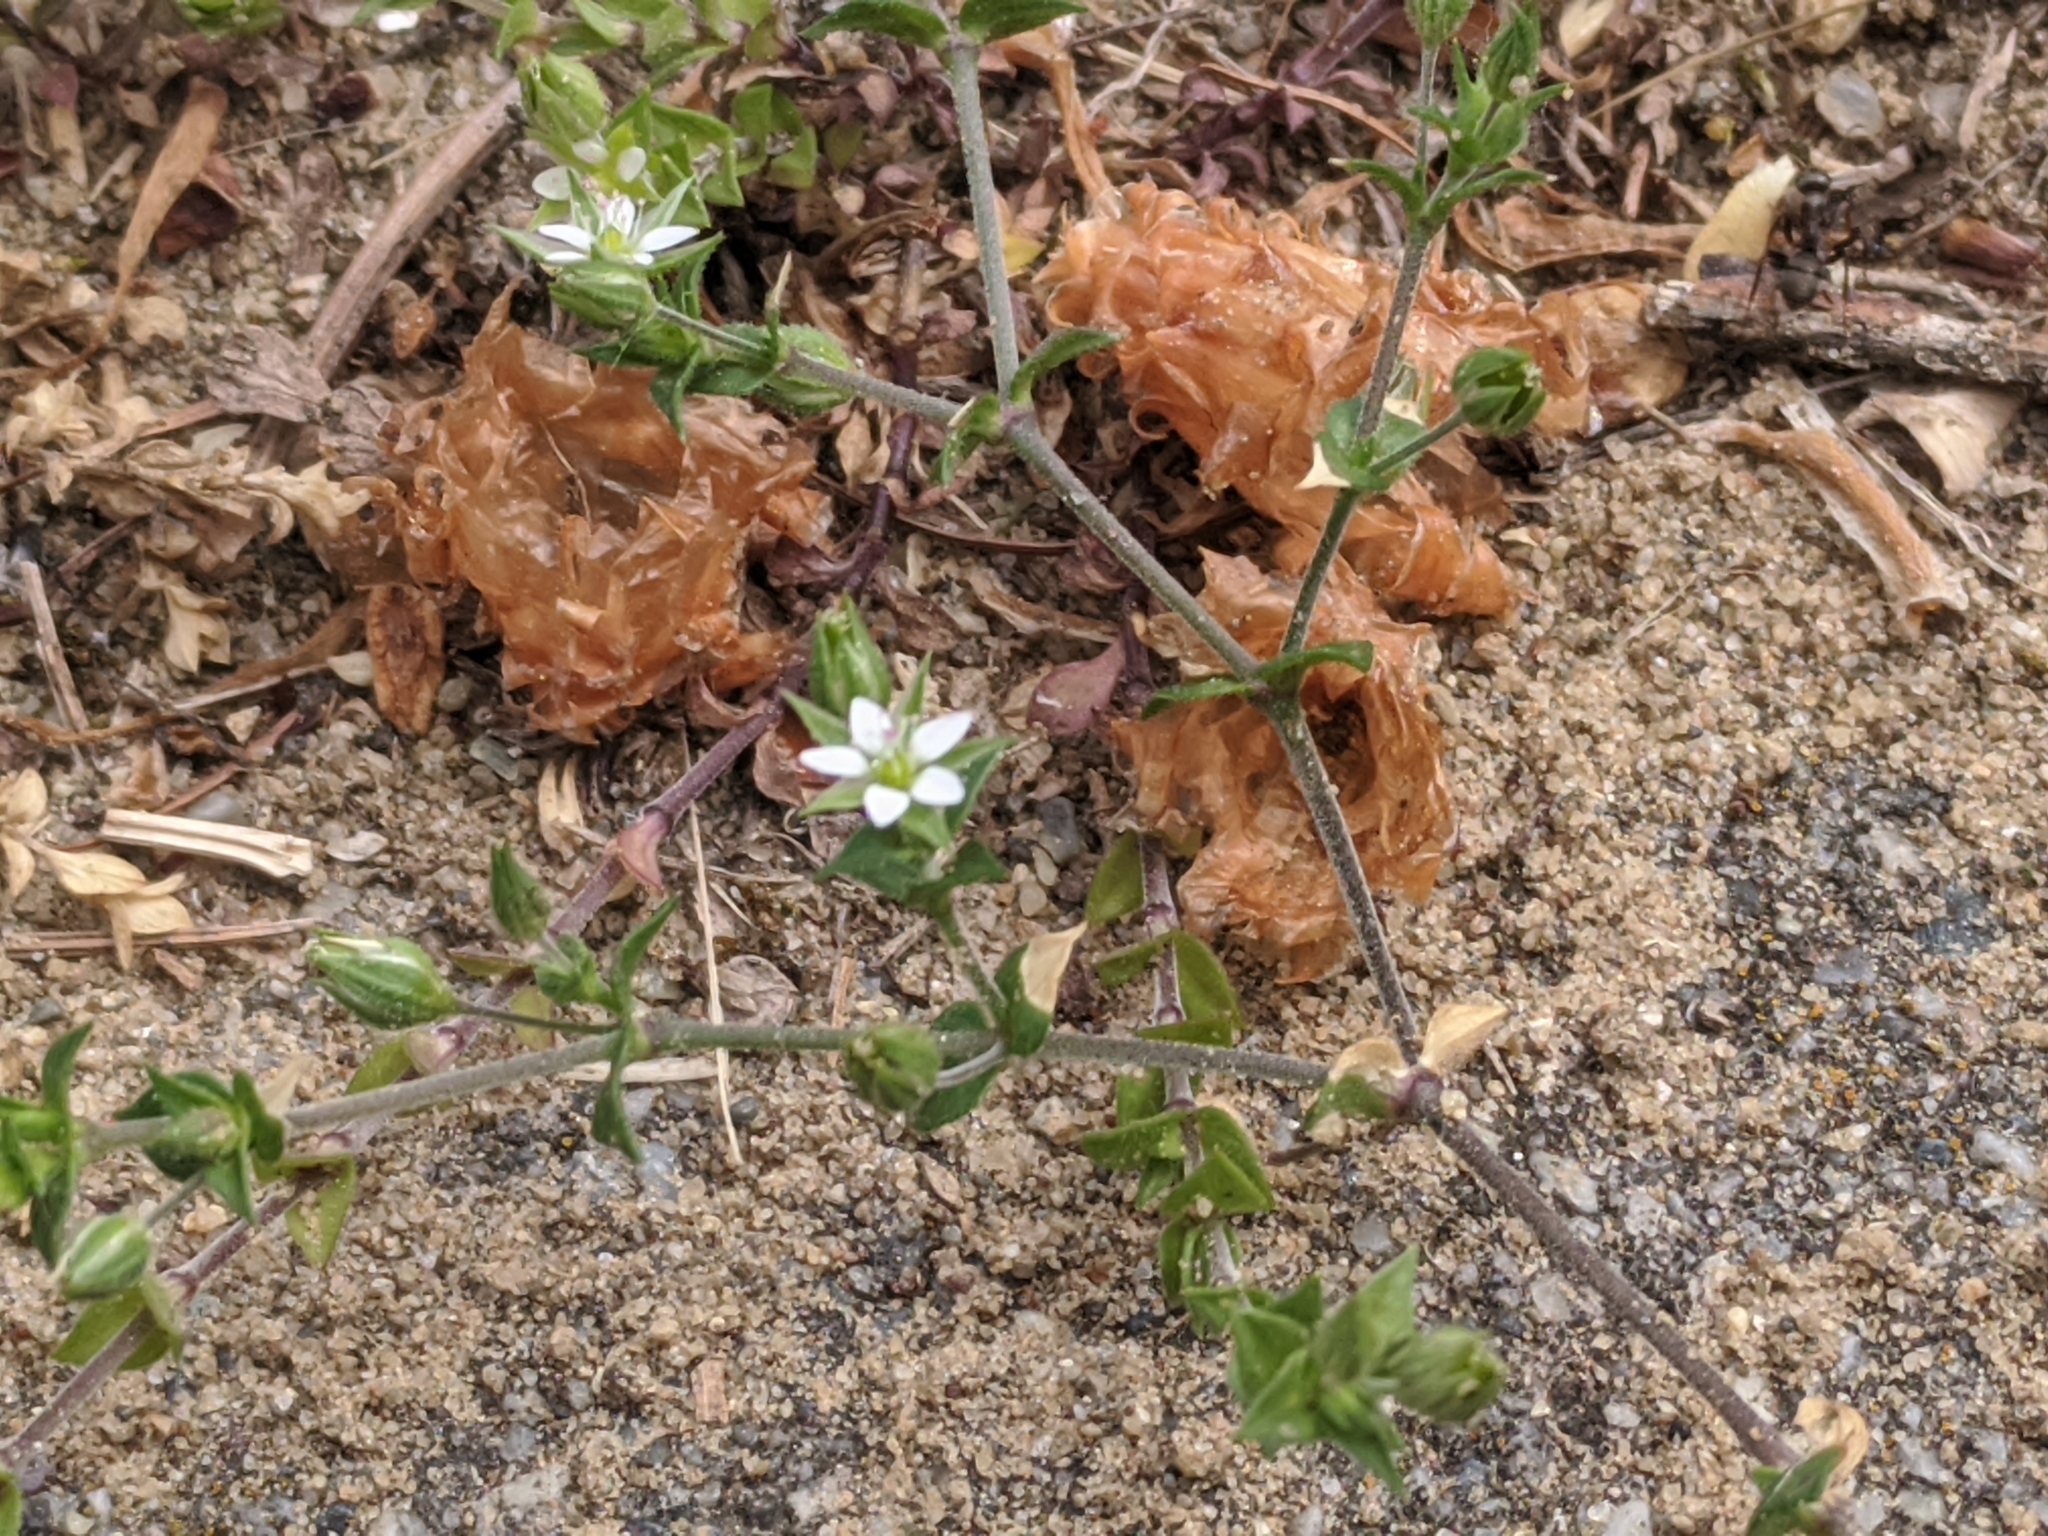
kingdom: Plantae
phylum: Tracheophyta
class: Magnoliopsida
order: Caryophyllales
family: Caryophyllaceae
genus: Arenaria
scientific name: Arenaria serpyllifolia
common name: Thyme-leaved sandwort
